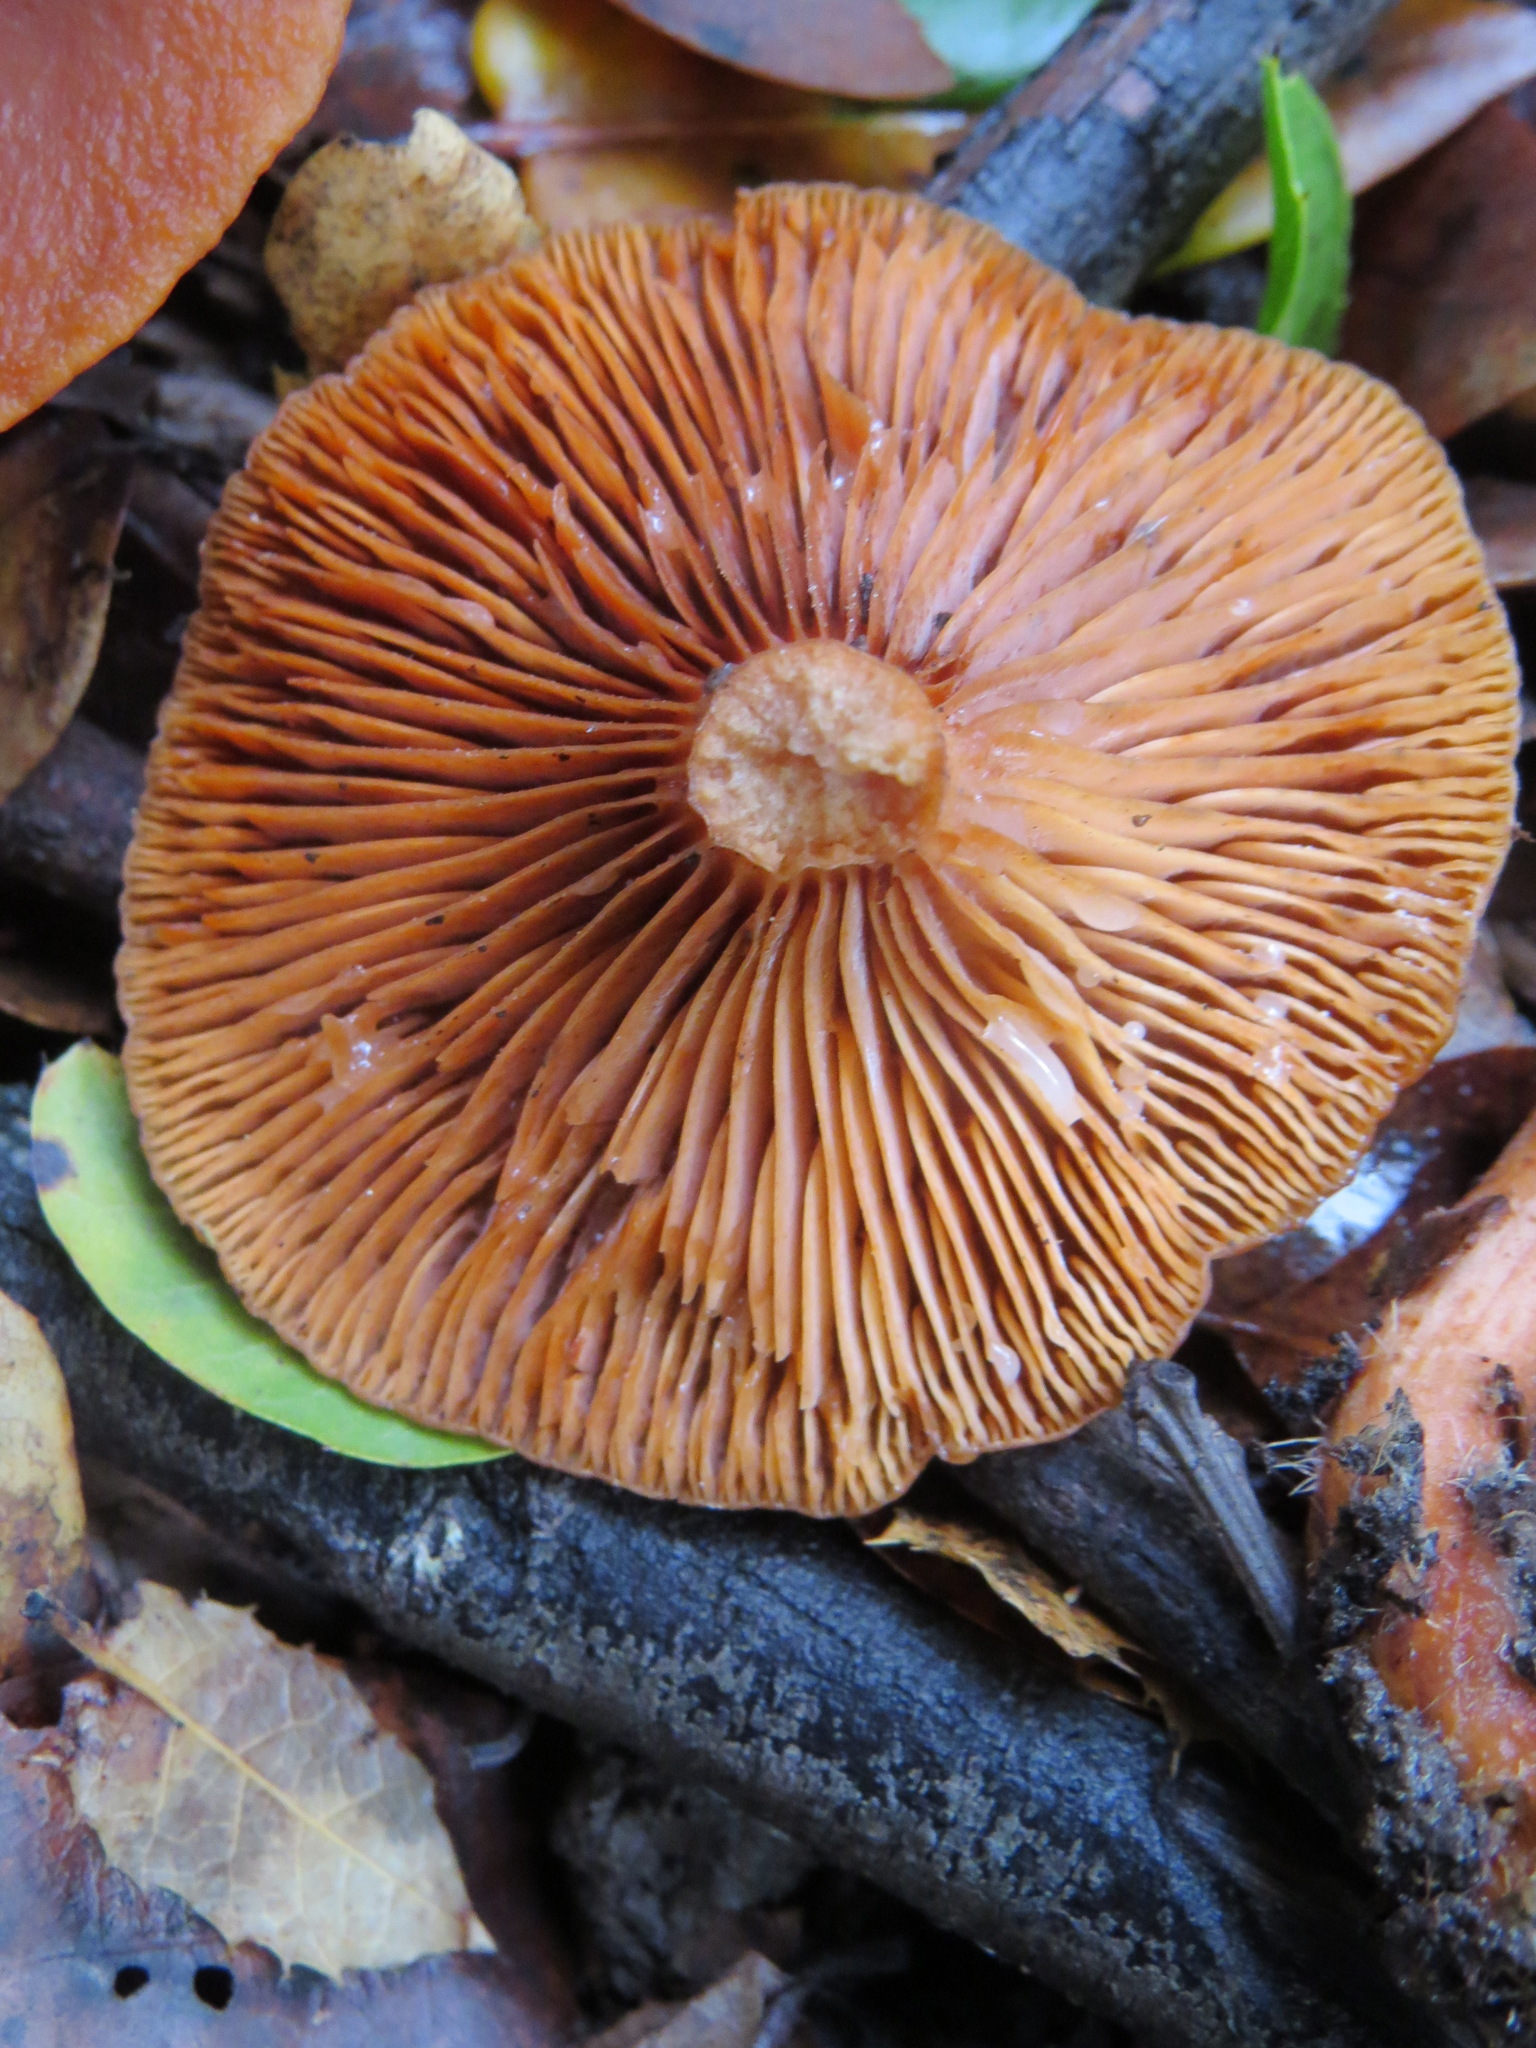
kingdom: Fungi
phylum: Basidiomycota
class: Agaricomycetes
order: Russulales
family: Russulaceae
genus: Lactarius
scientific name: Lactarius rubidus
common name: Candy cap
